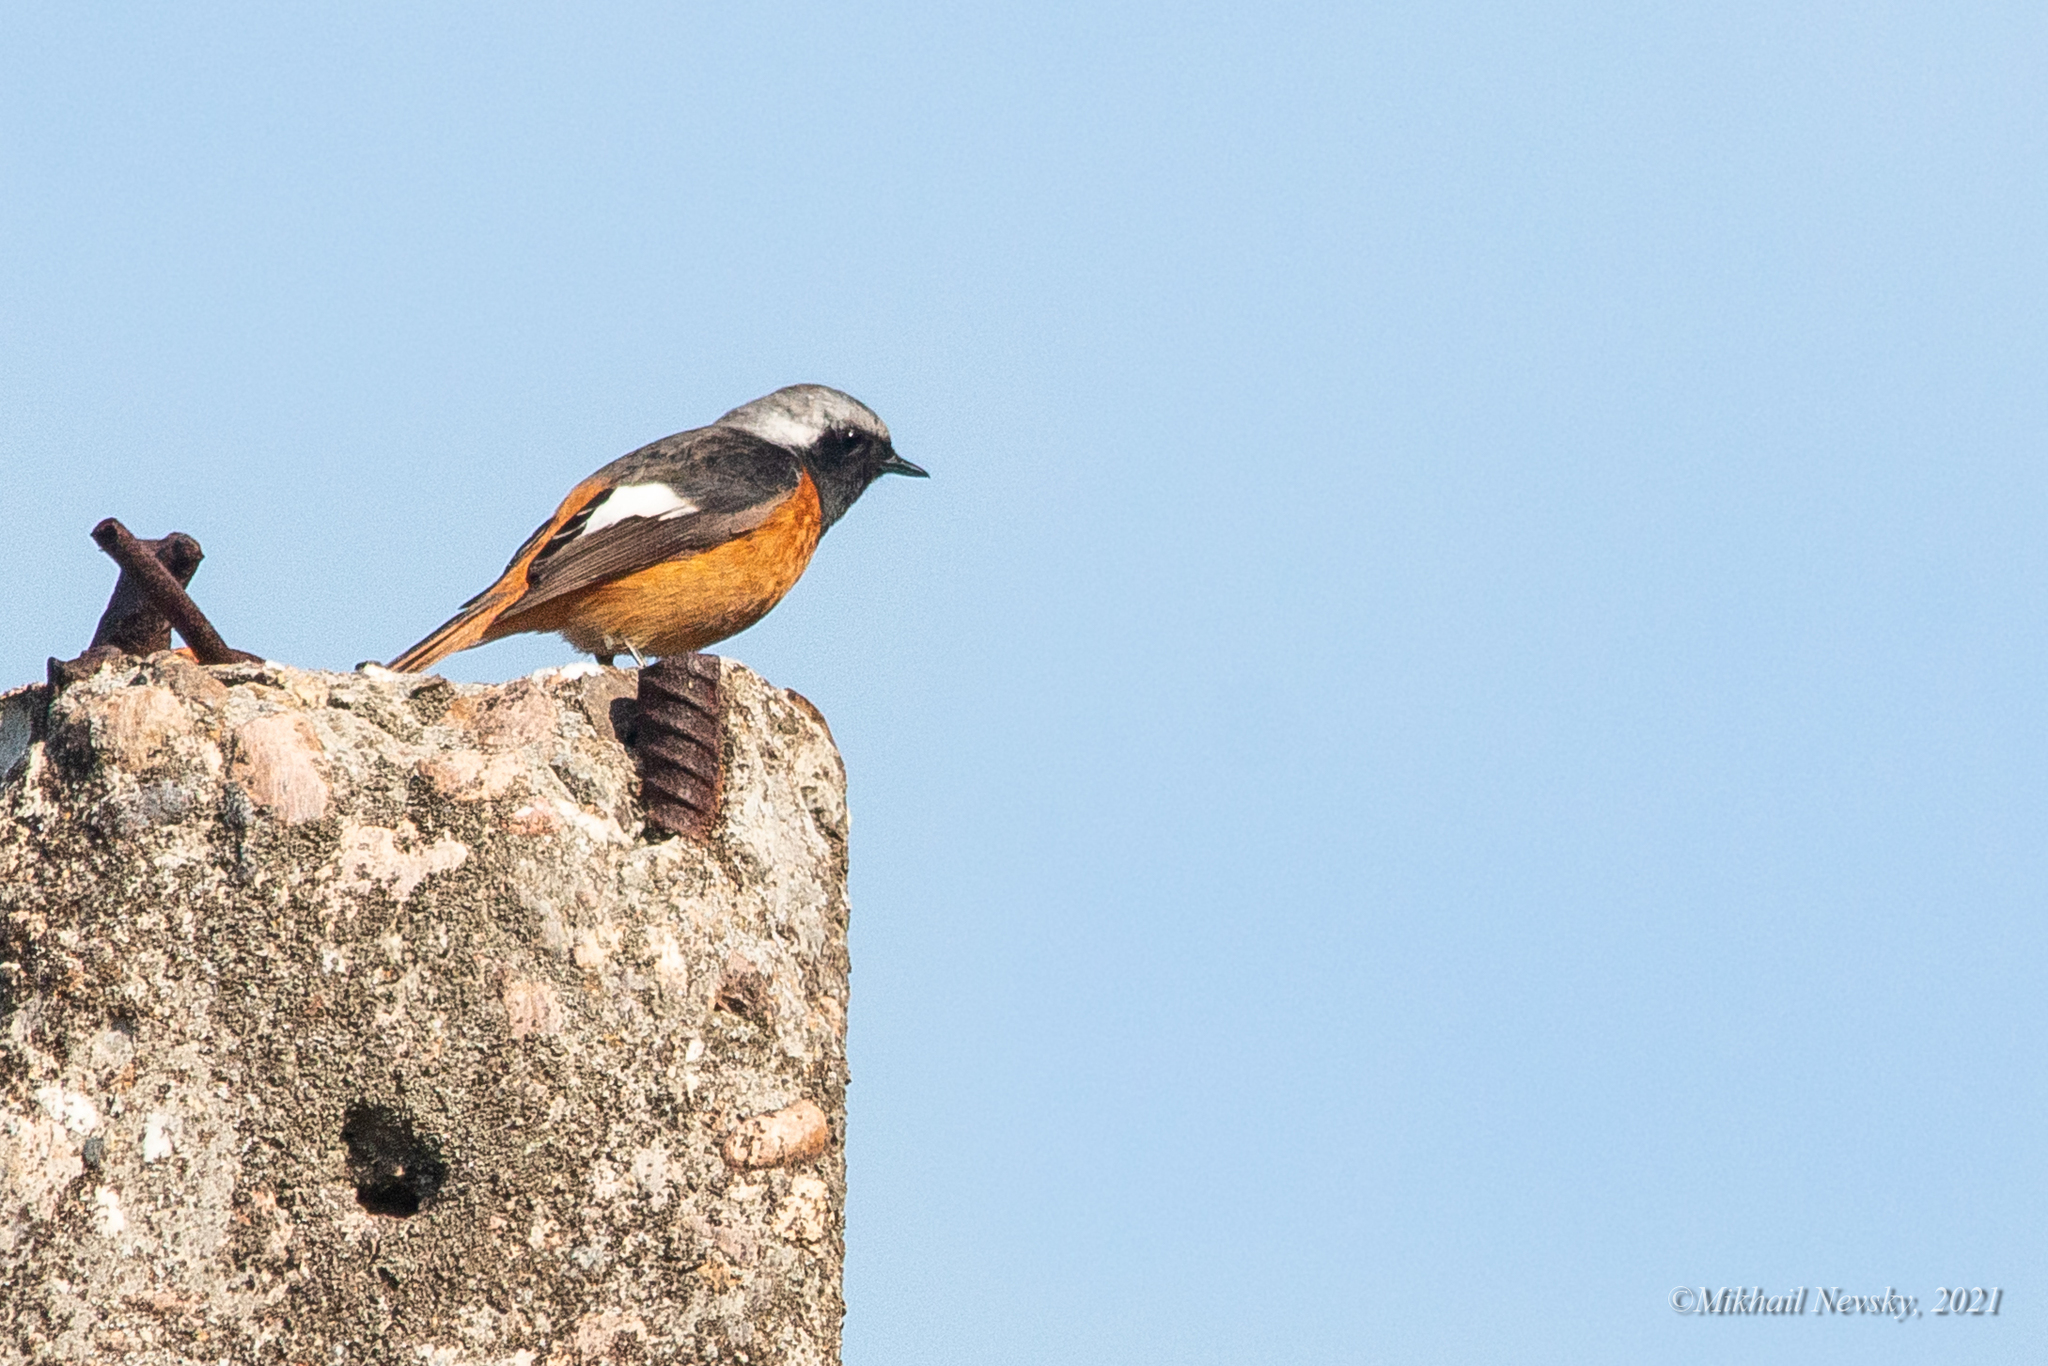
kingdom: Animalia
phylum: Chordata
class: Aves
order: Passeriformes
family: Muscicapidae
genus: Phoenicurus
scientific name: Phoenicurus auroreus
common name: Daurian redstart
